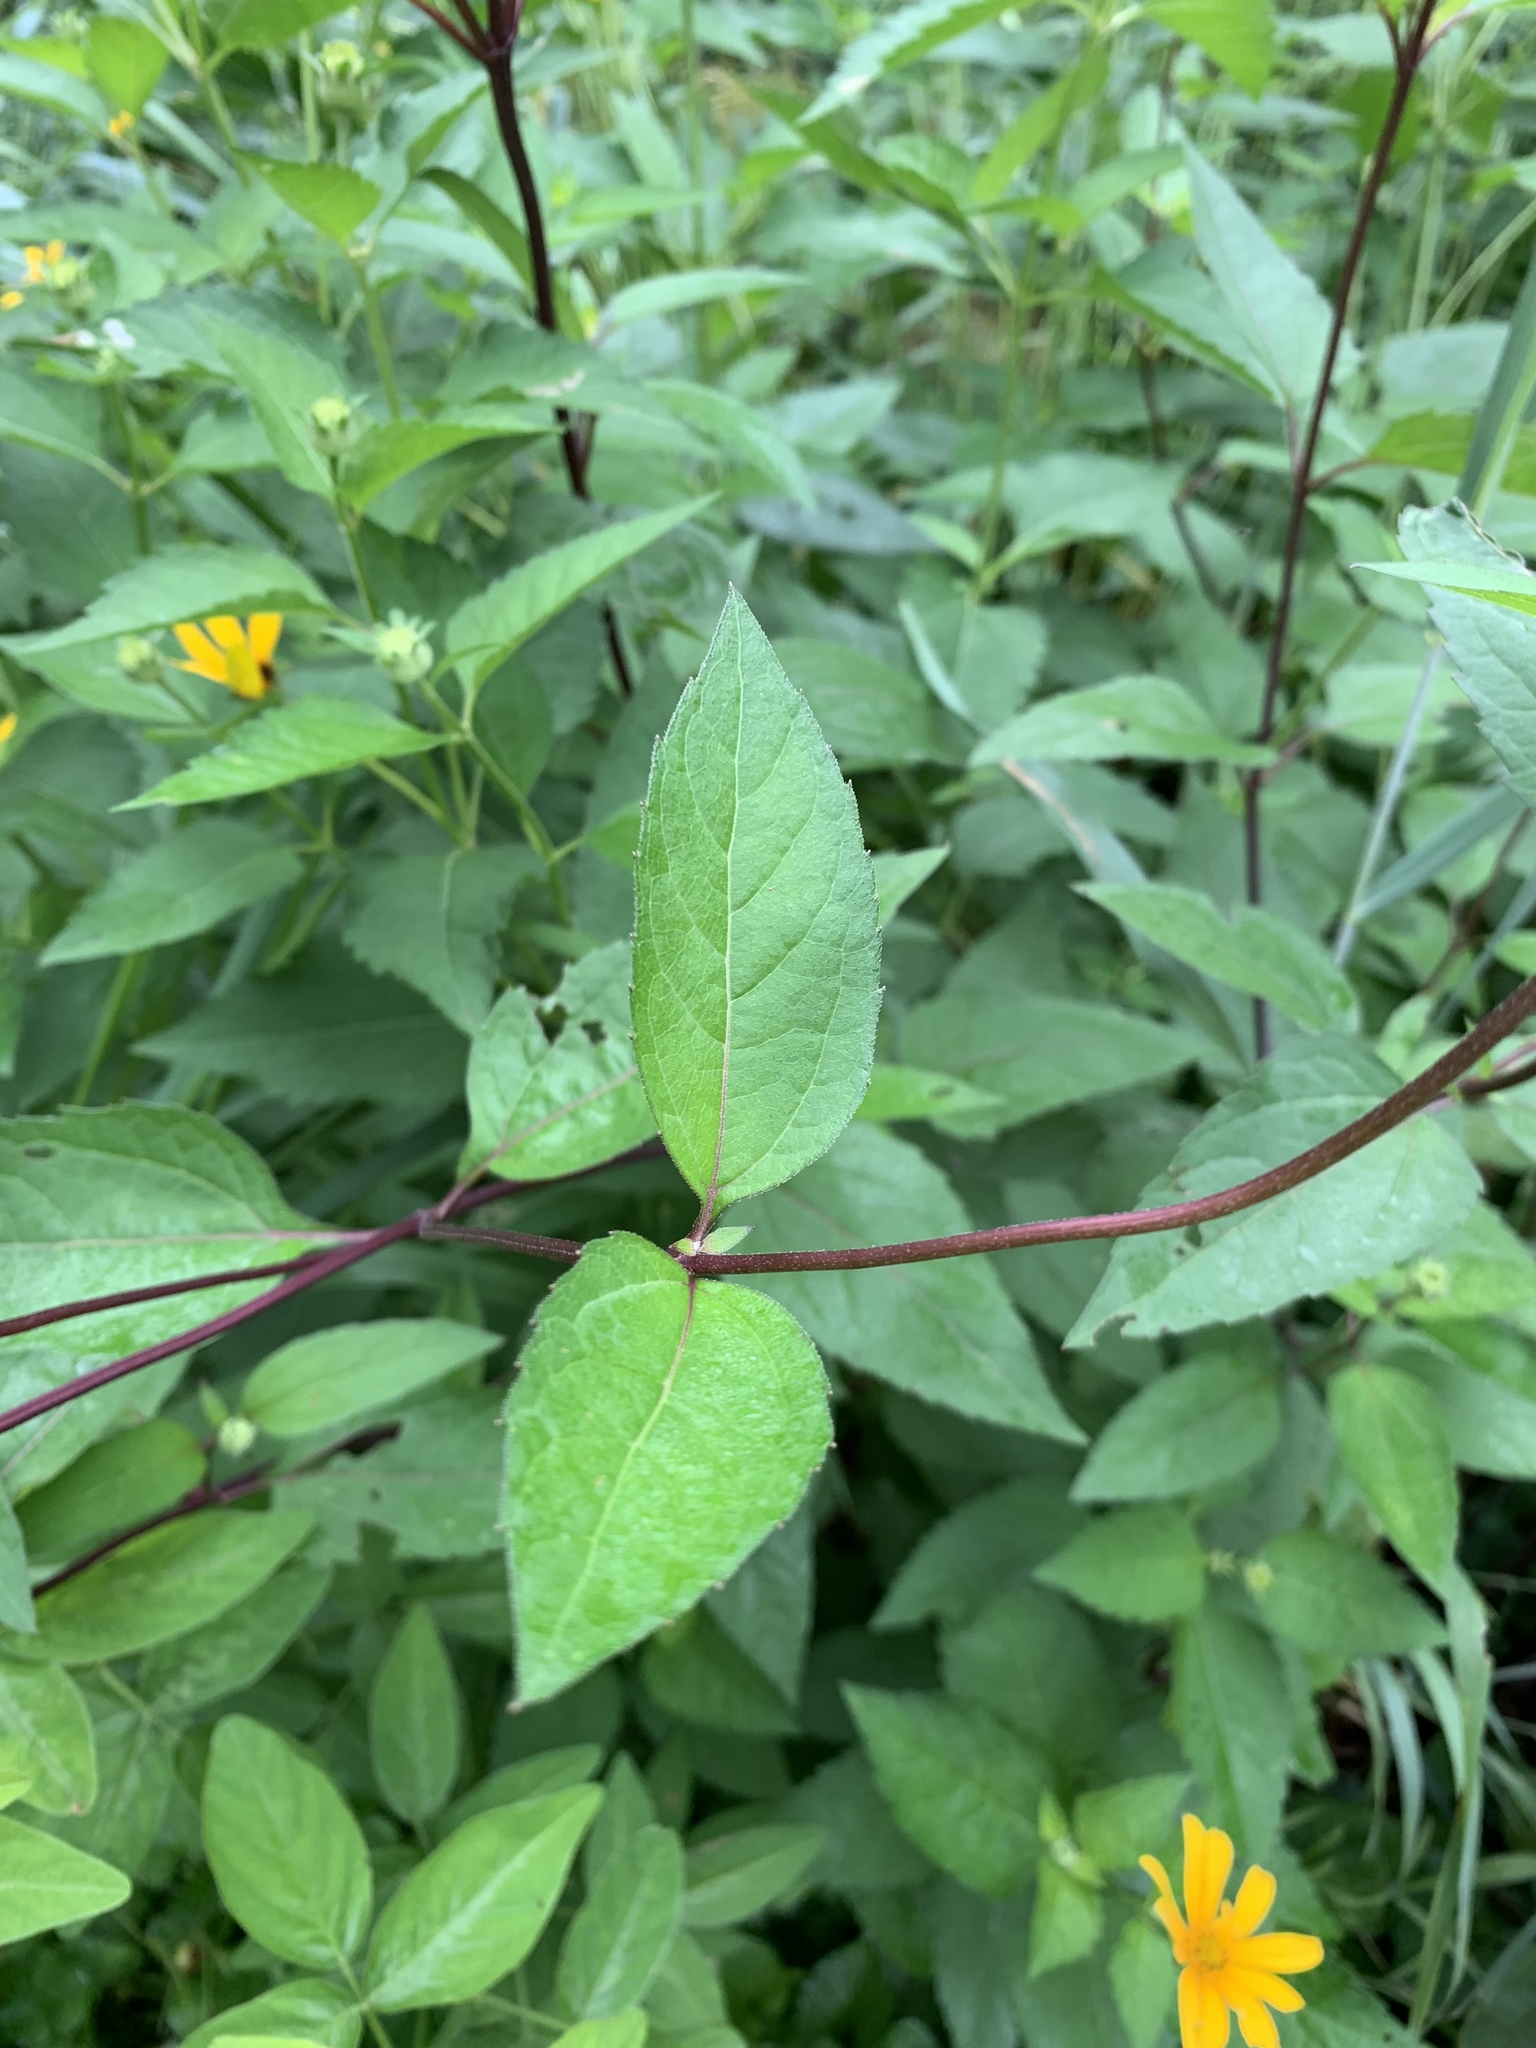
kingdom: Plantae
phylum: Tracheophyta
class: Magnoliopsida
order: Asterales
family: Asteraceae
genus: Heliopsis
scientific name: Heliopsis helianthoides
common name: False sunflower
